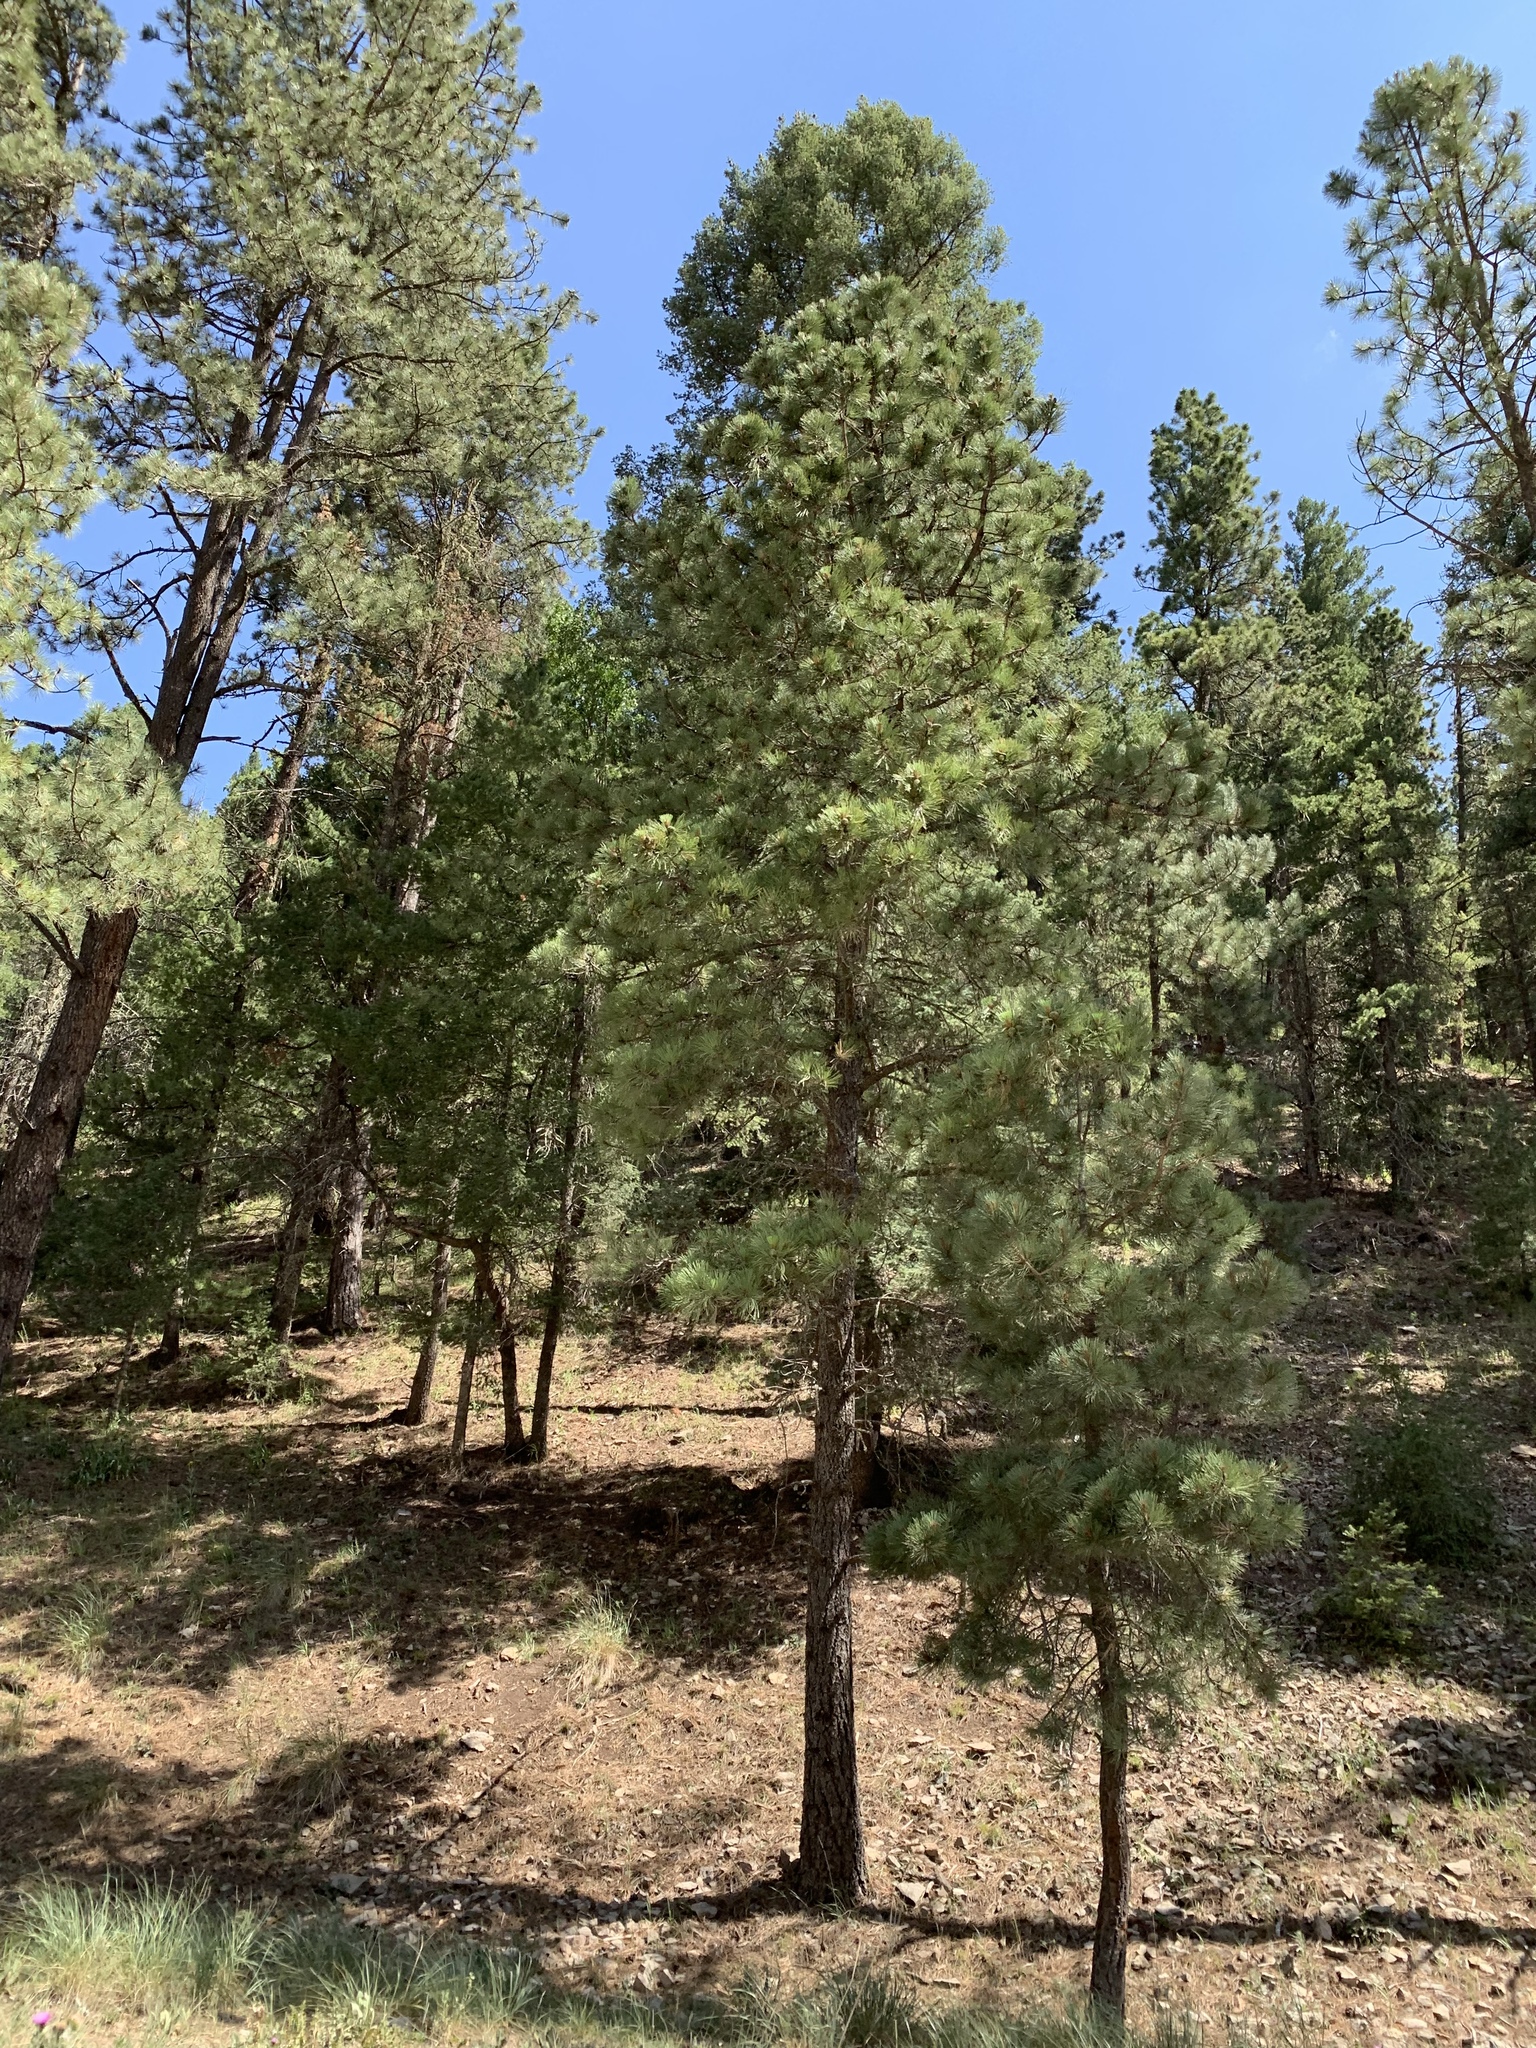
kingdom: Plantae
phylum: Tracheophyta
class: Pinopsida
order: Pinales
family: Pinaceae
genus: Pinus
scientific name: Pinus ponderosa
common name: Western yellow-pine
